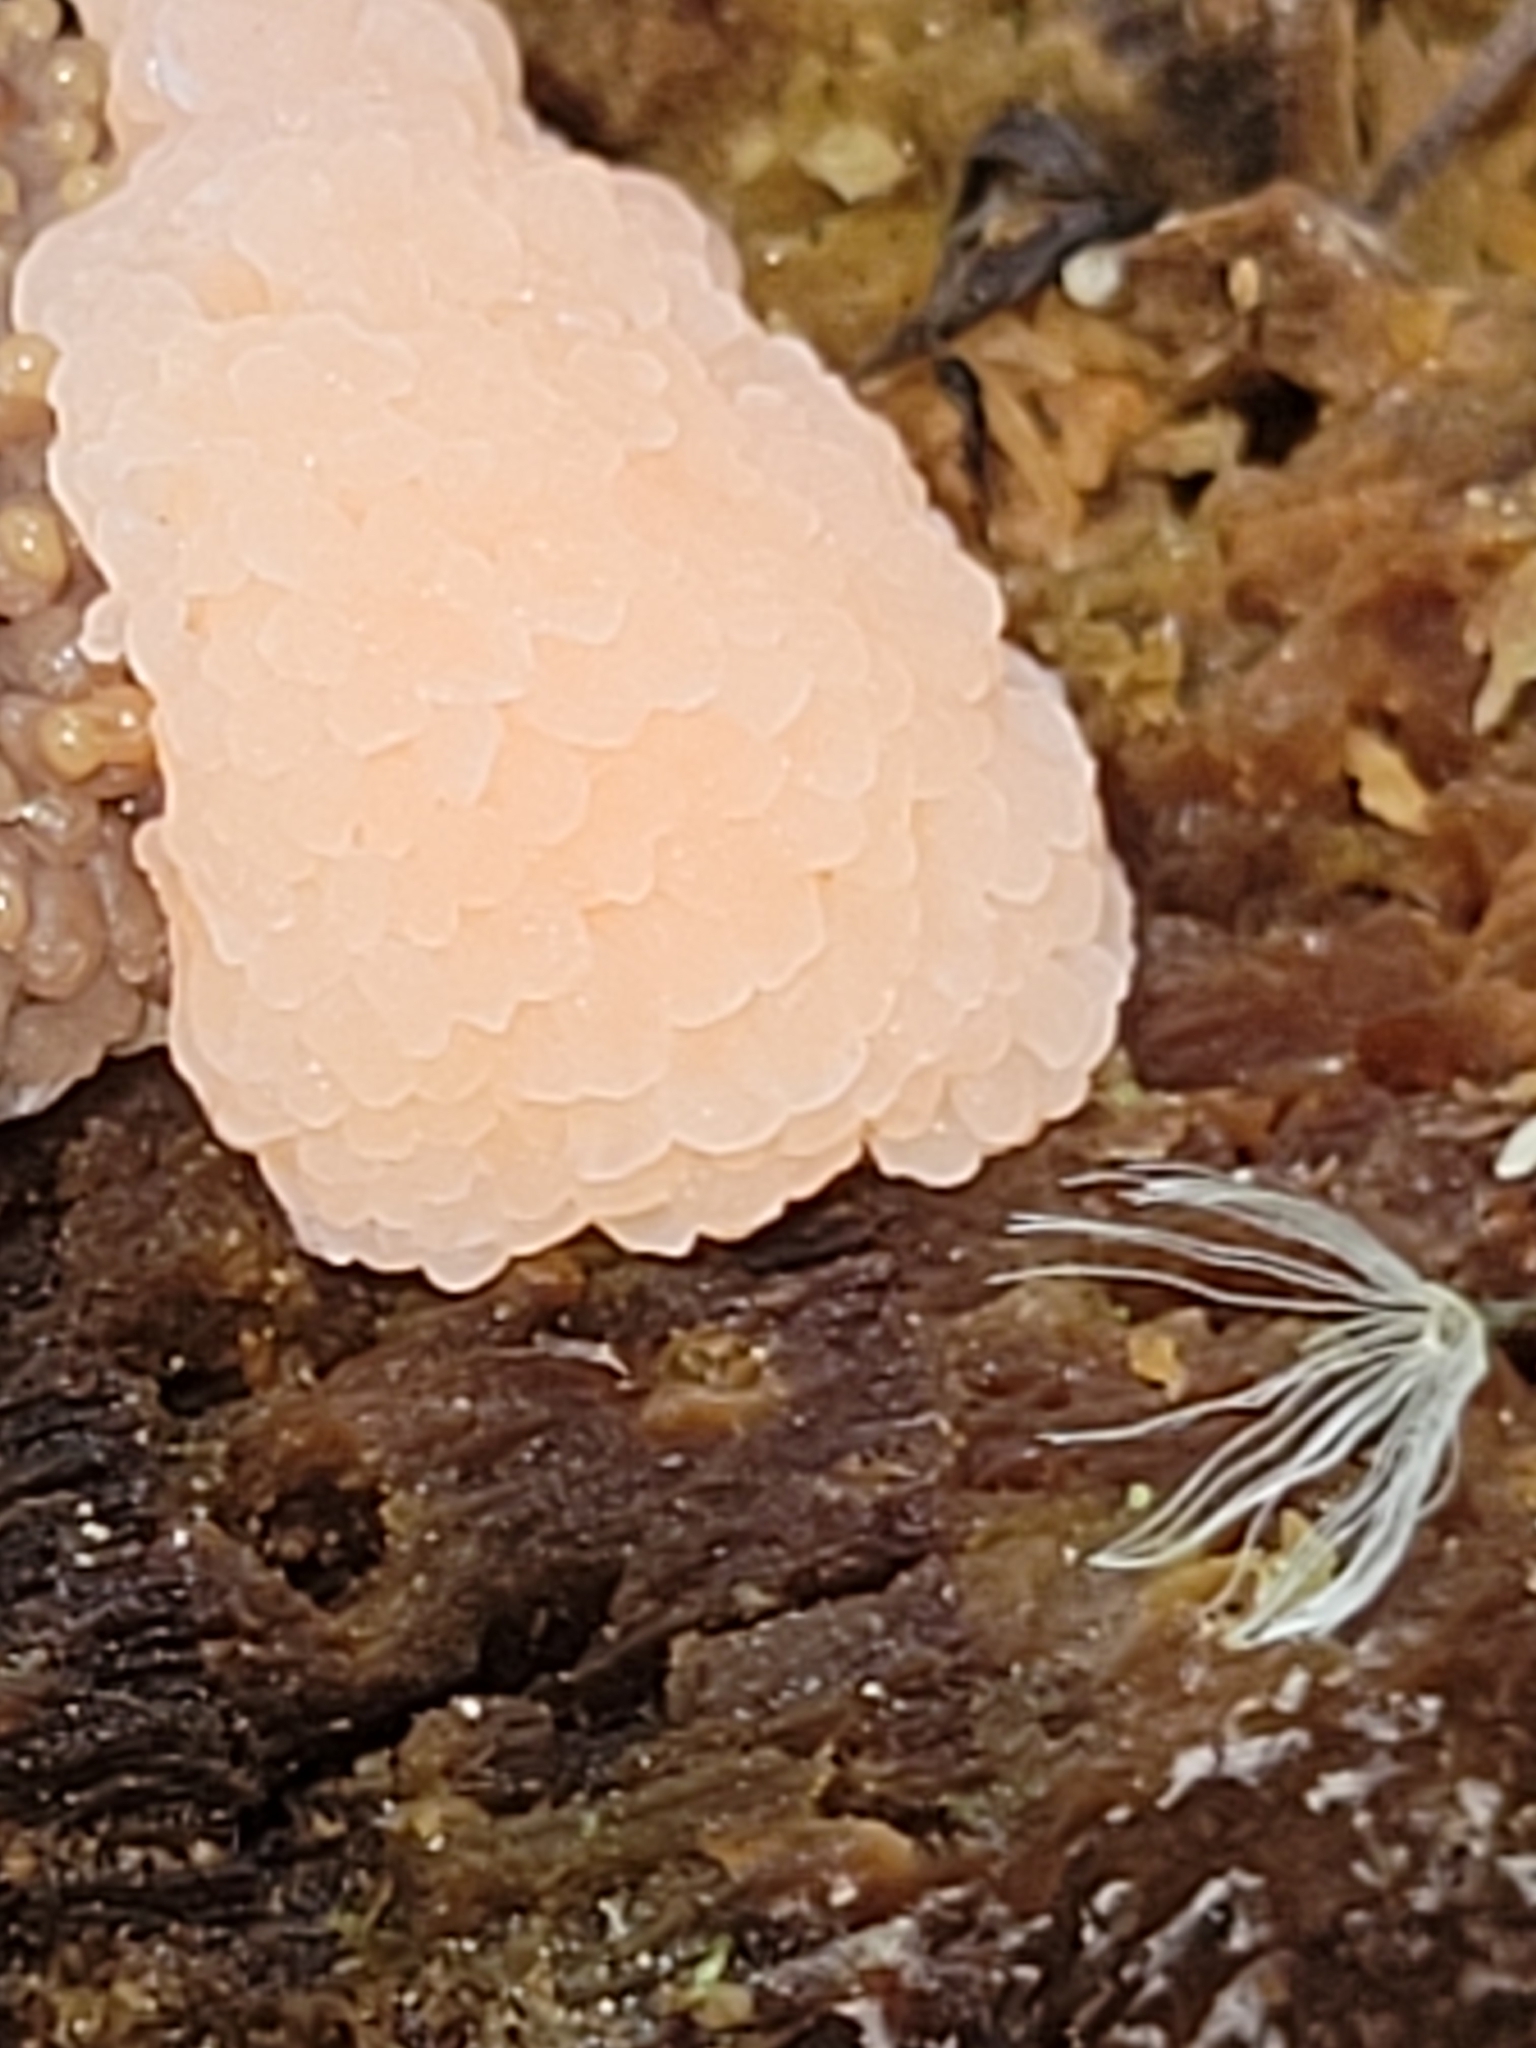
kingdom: Protozoa
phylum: Mycetozoa
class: Myxomycetes
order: Cribrariales
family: Tubiferaceae
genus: Tubifera
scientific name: Tubifera ferruginosa
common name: Red raspberry slime mold
